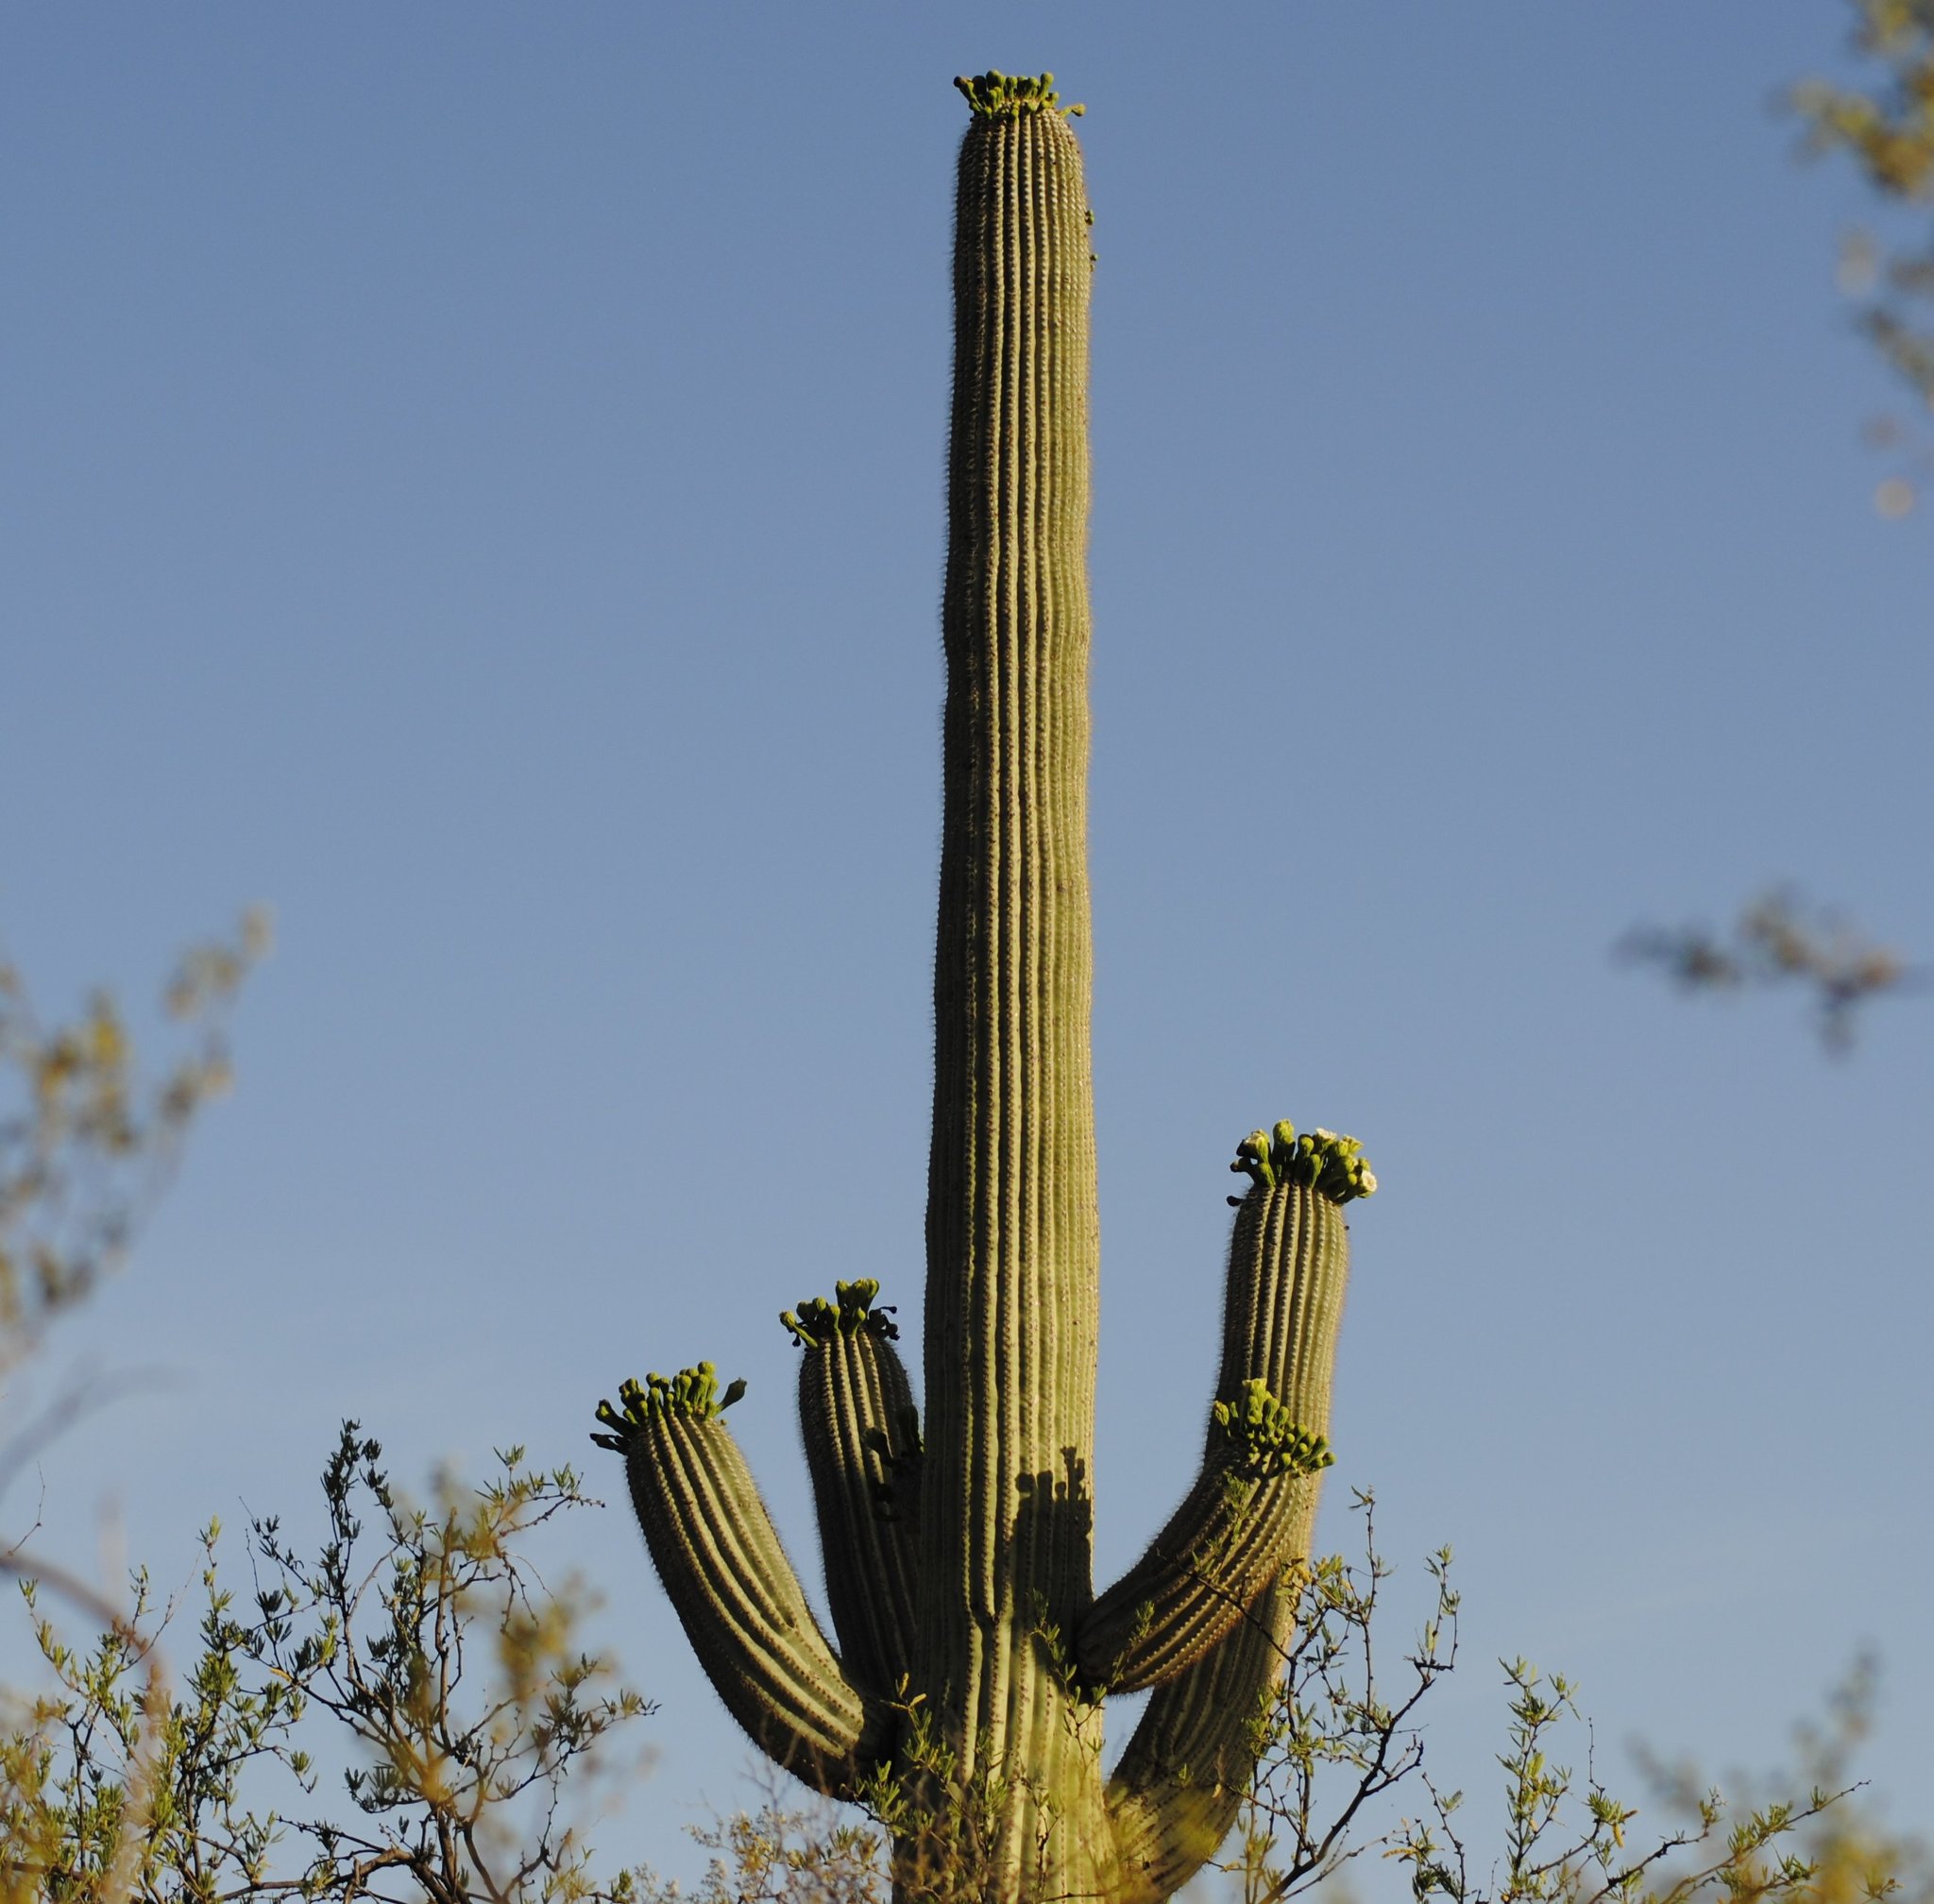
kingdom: Plantae
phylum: Tracheophyta
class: Magnoliopsida
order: Caryophyllales
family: Cactaceae
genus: Carnegiea
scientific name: Carnegiea gigantea
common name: Saguaro
